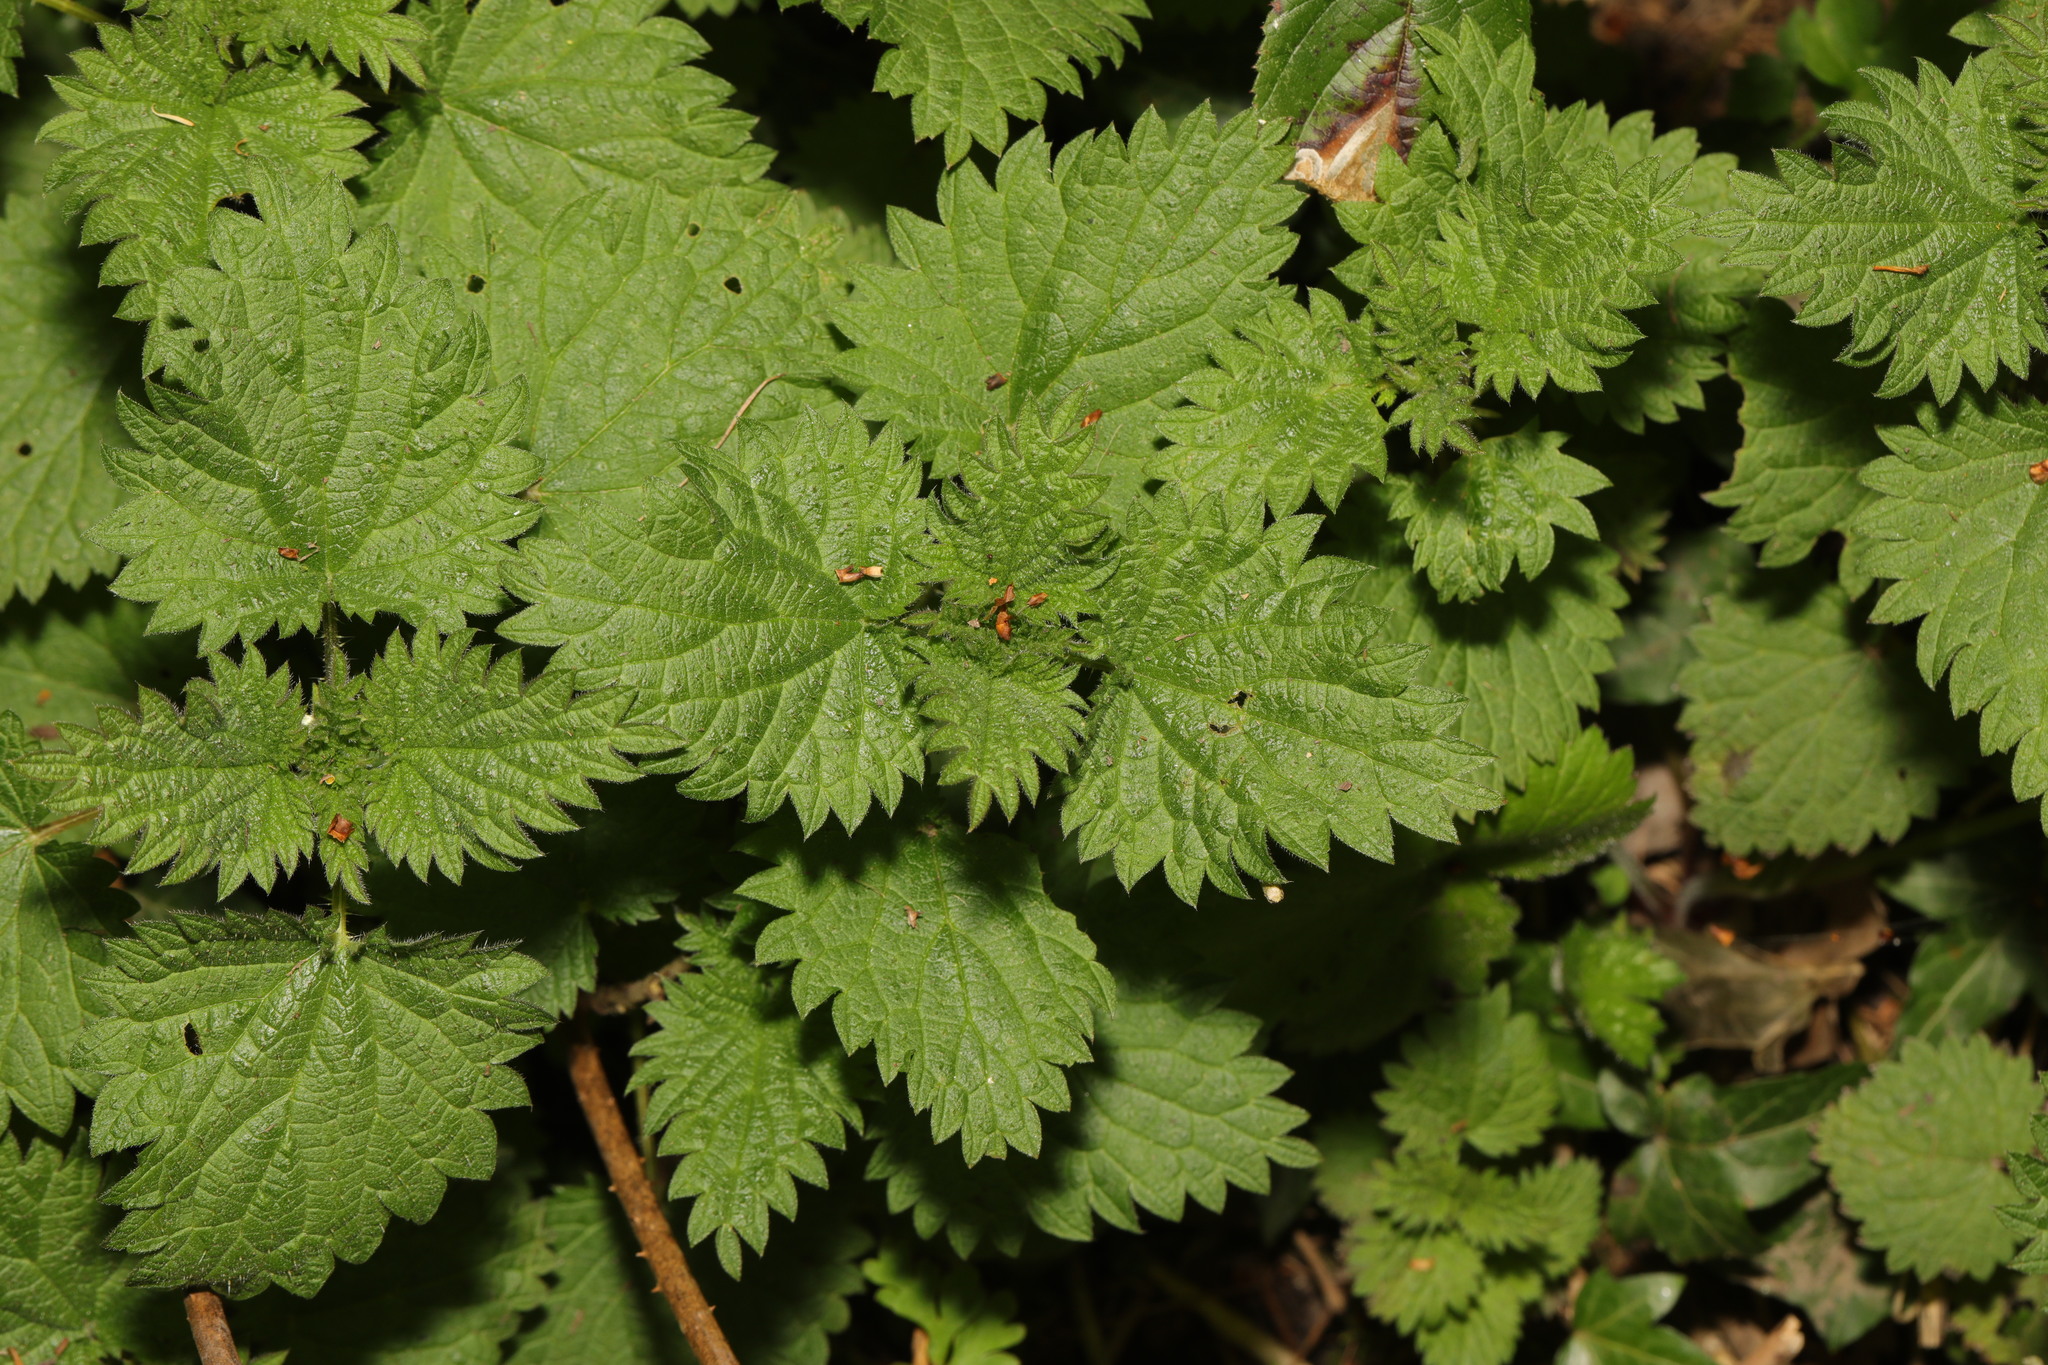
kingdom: Plantae
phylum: Tracheophyta
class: Magnoliopsida
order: Rosales
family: Urticaceae
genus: Urtica
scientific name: Urtica dioica
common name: Common nettle
